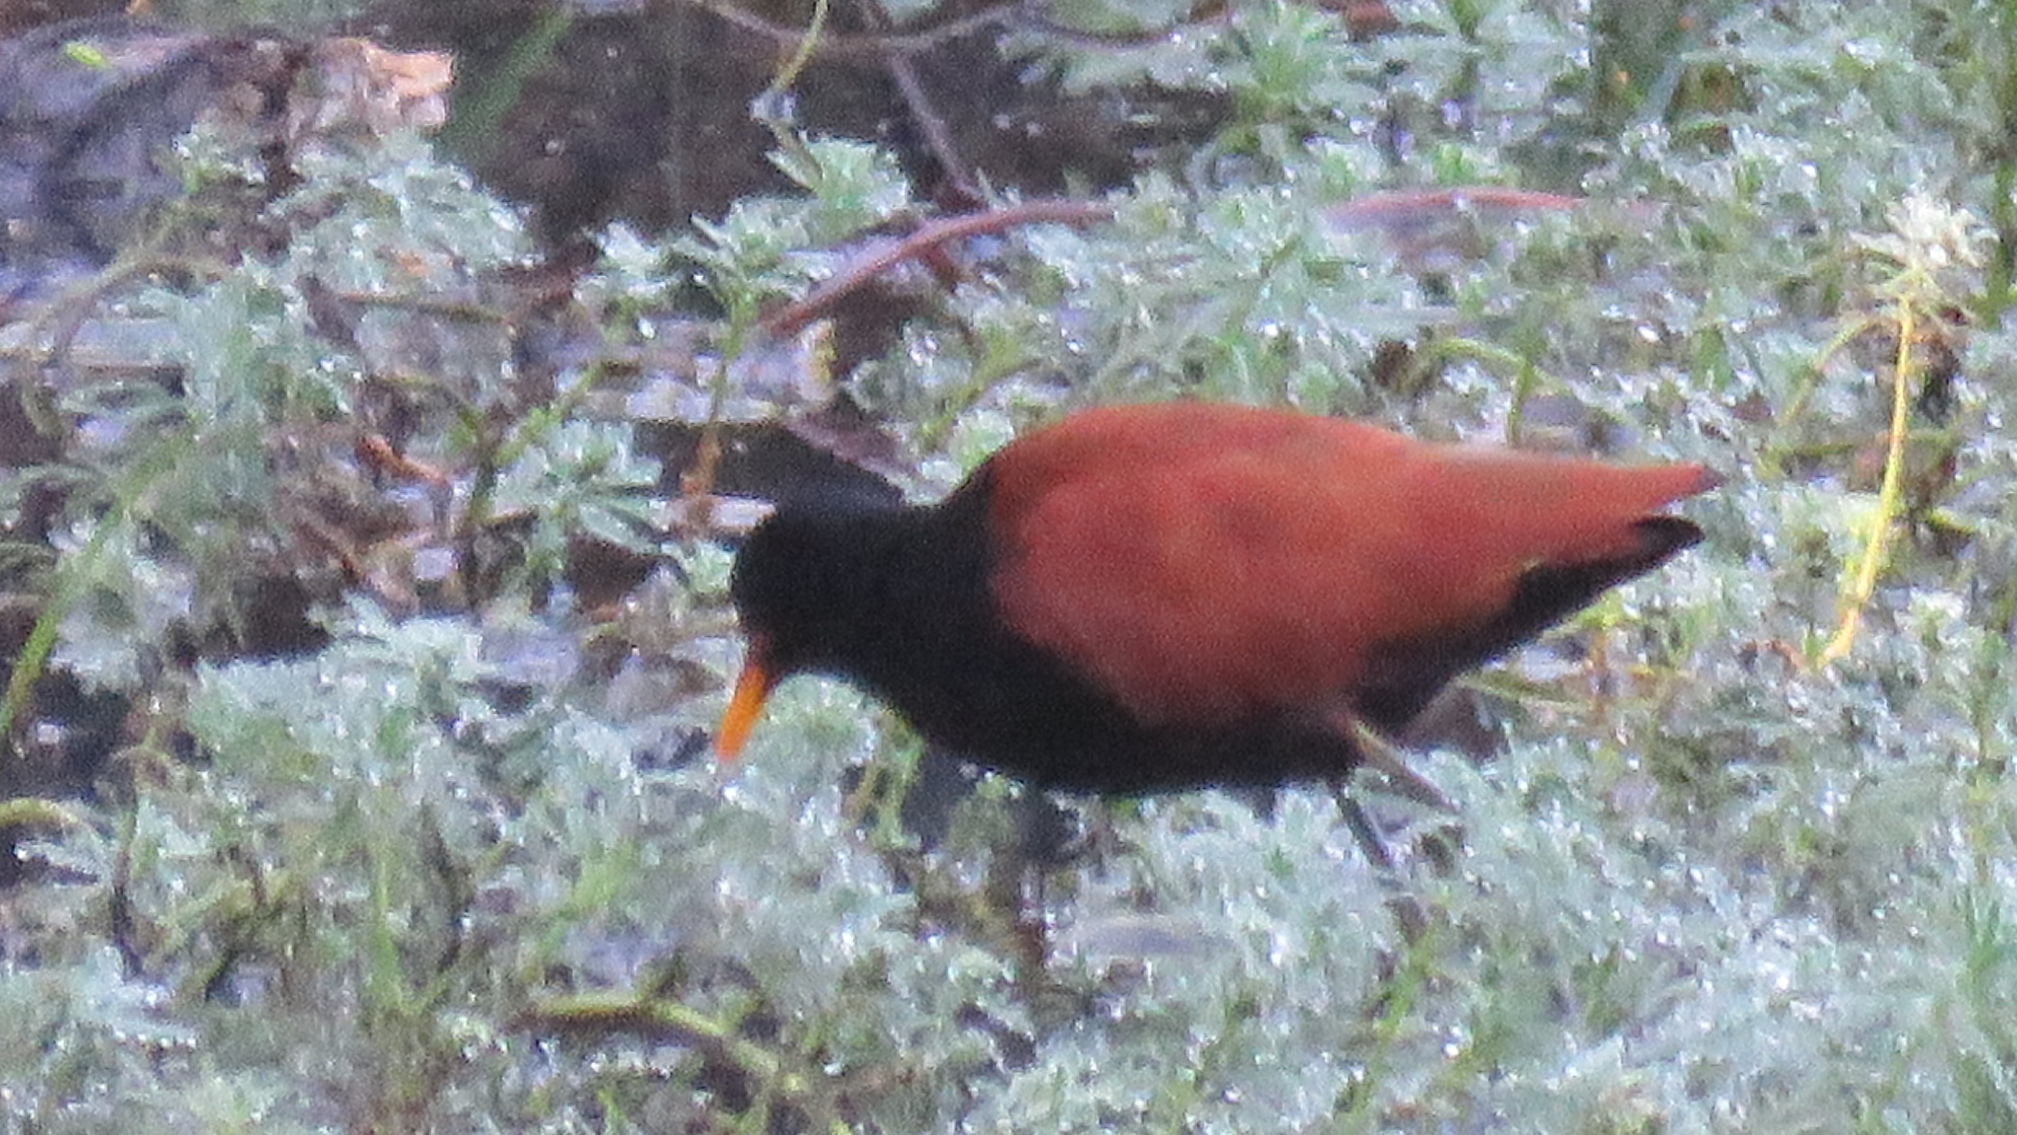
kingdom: Animalia
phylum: Chordata
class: Aves
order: Charadriiformes
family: Jacanidae
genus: Jacana
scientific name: Jacana jacana
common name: Wattled jacana
